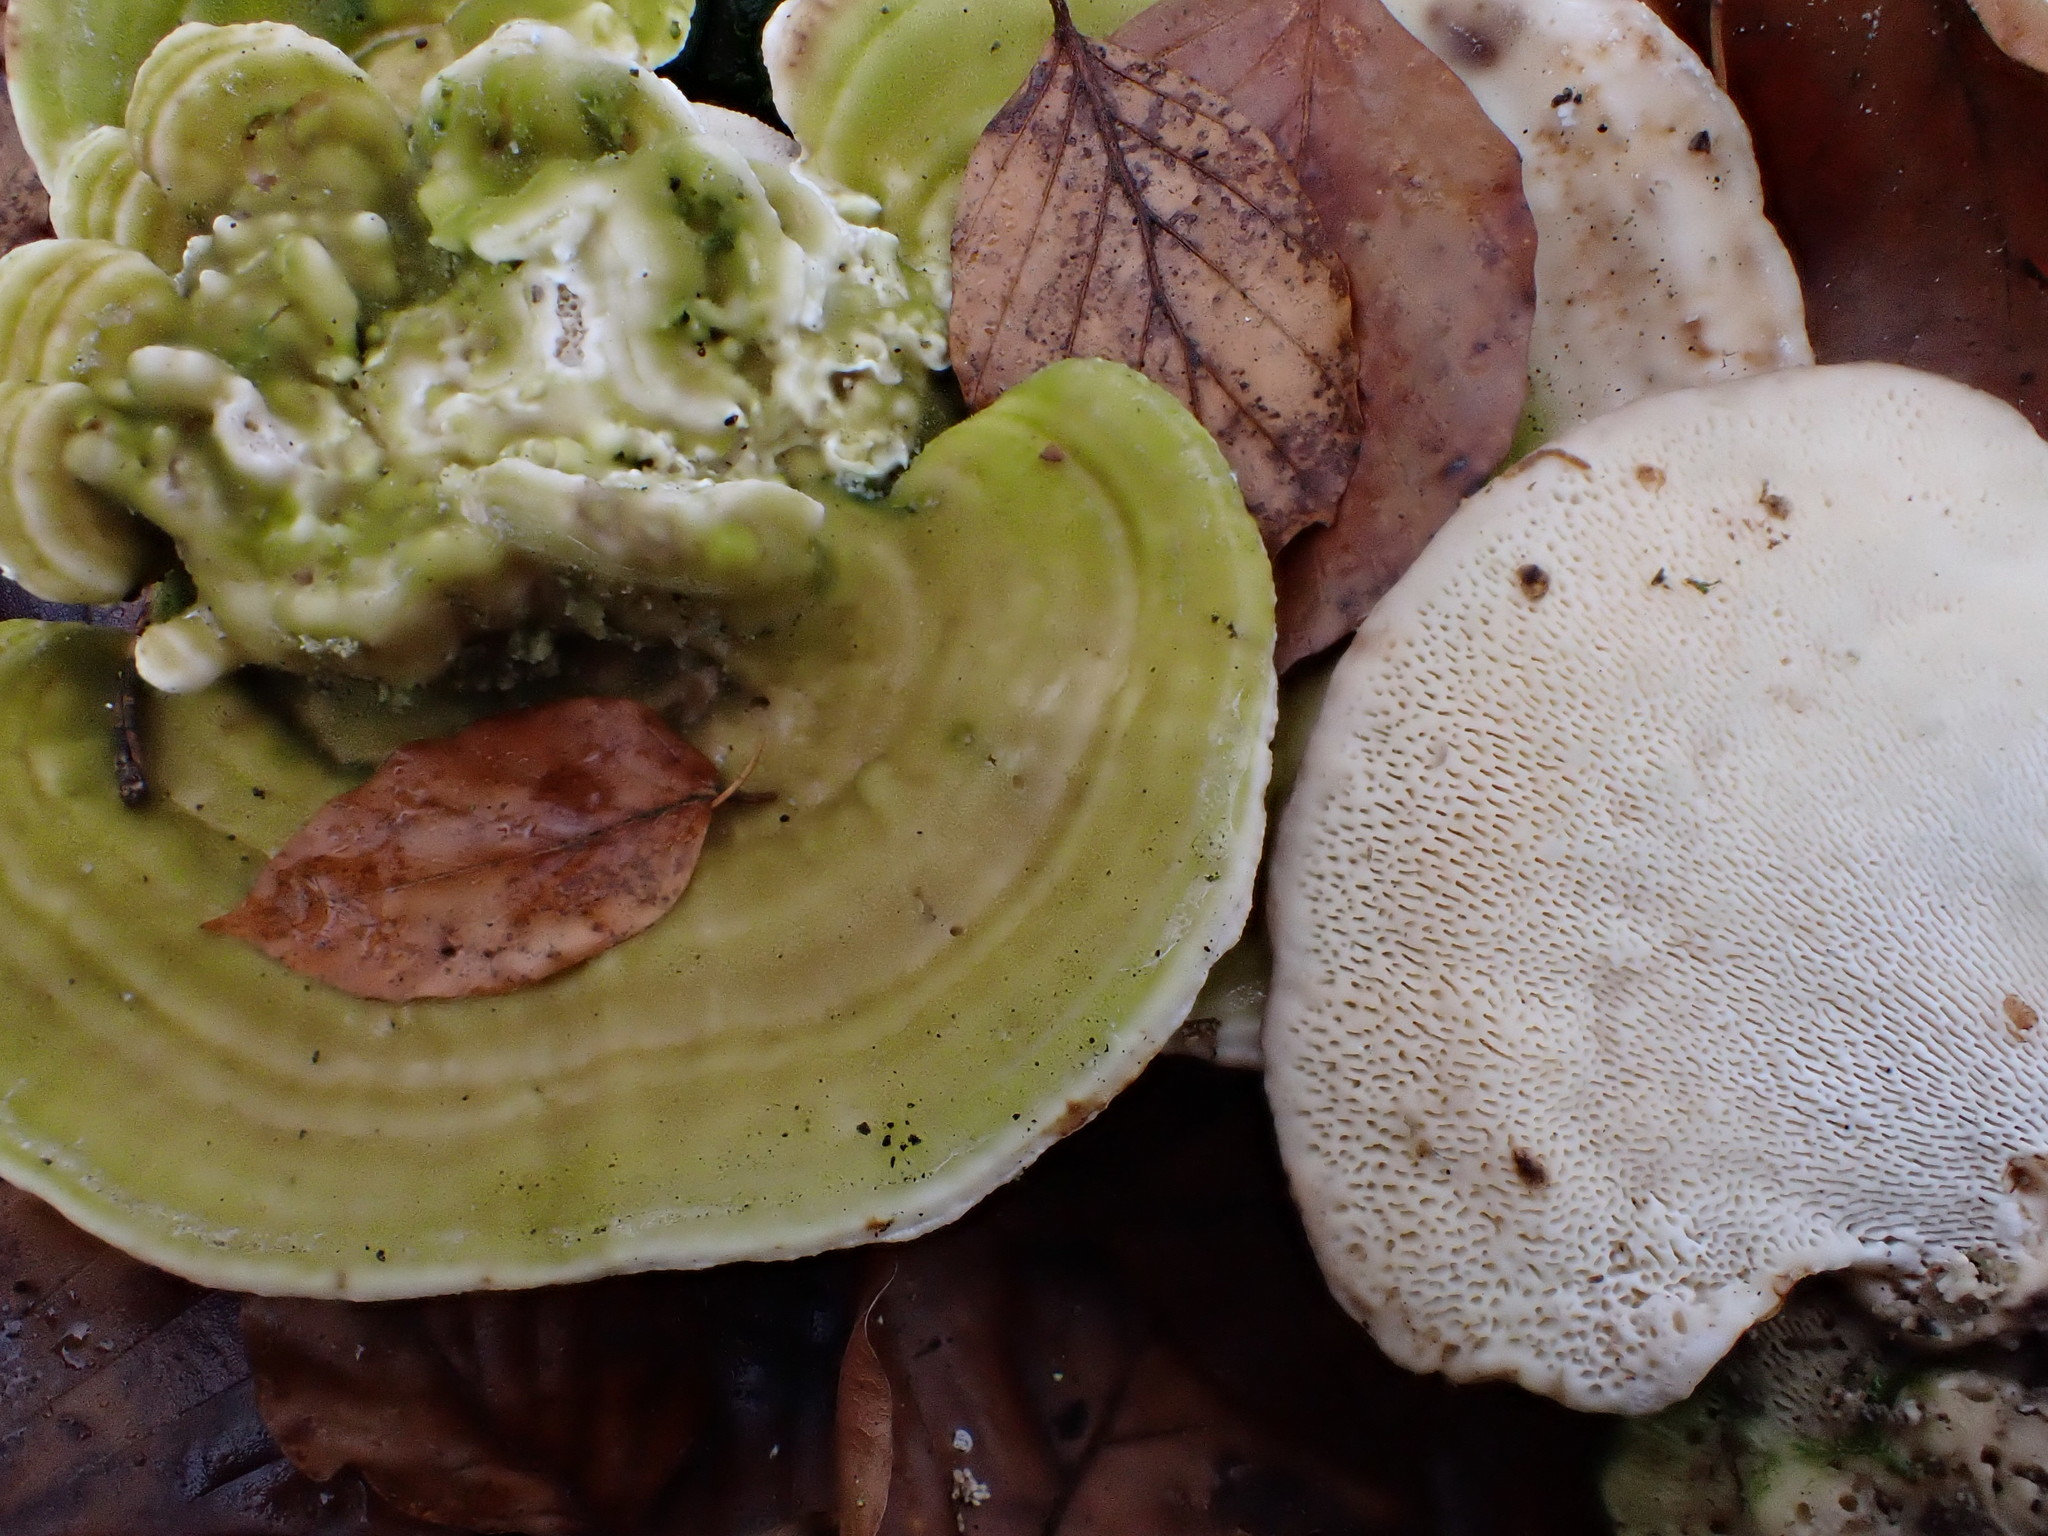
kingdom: Fungi
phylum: Basidiomycota
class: Agaricomycetes
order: Polyporales
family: Polyporaceae
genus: Trametes
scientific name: Trametes gibbosa
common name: Lumpy bracket
